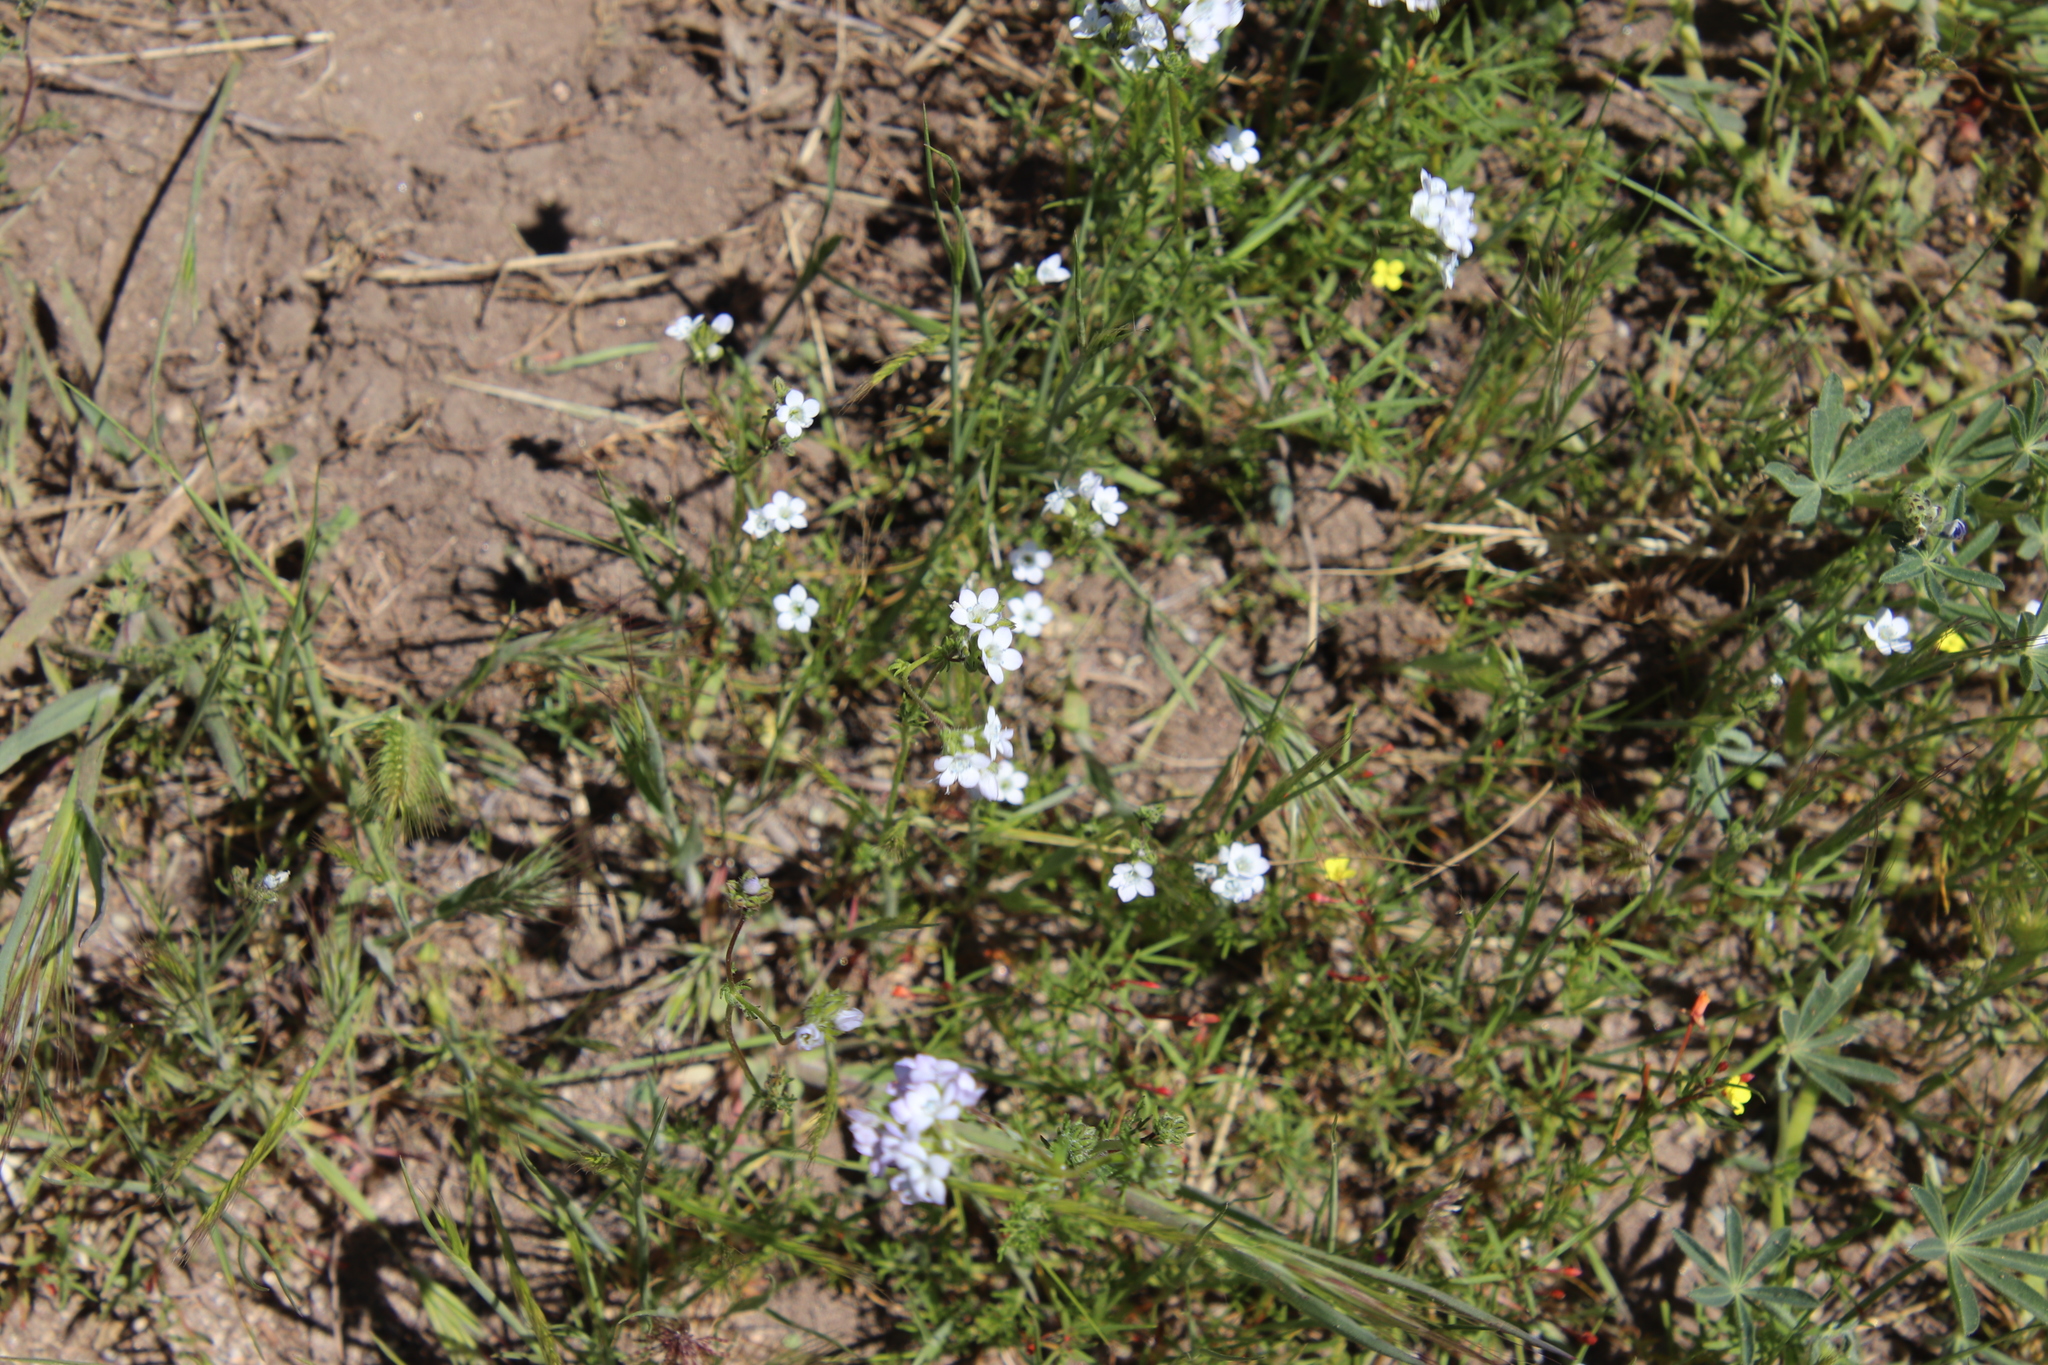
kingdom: Plantae
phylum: Tracheophyta
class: Magnoliopsida
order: Ericales
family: Polemoniaceae
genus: Gilia
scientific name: Gilia angelensis
